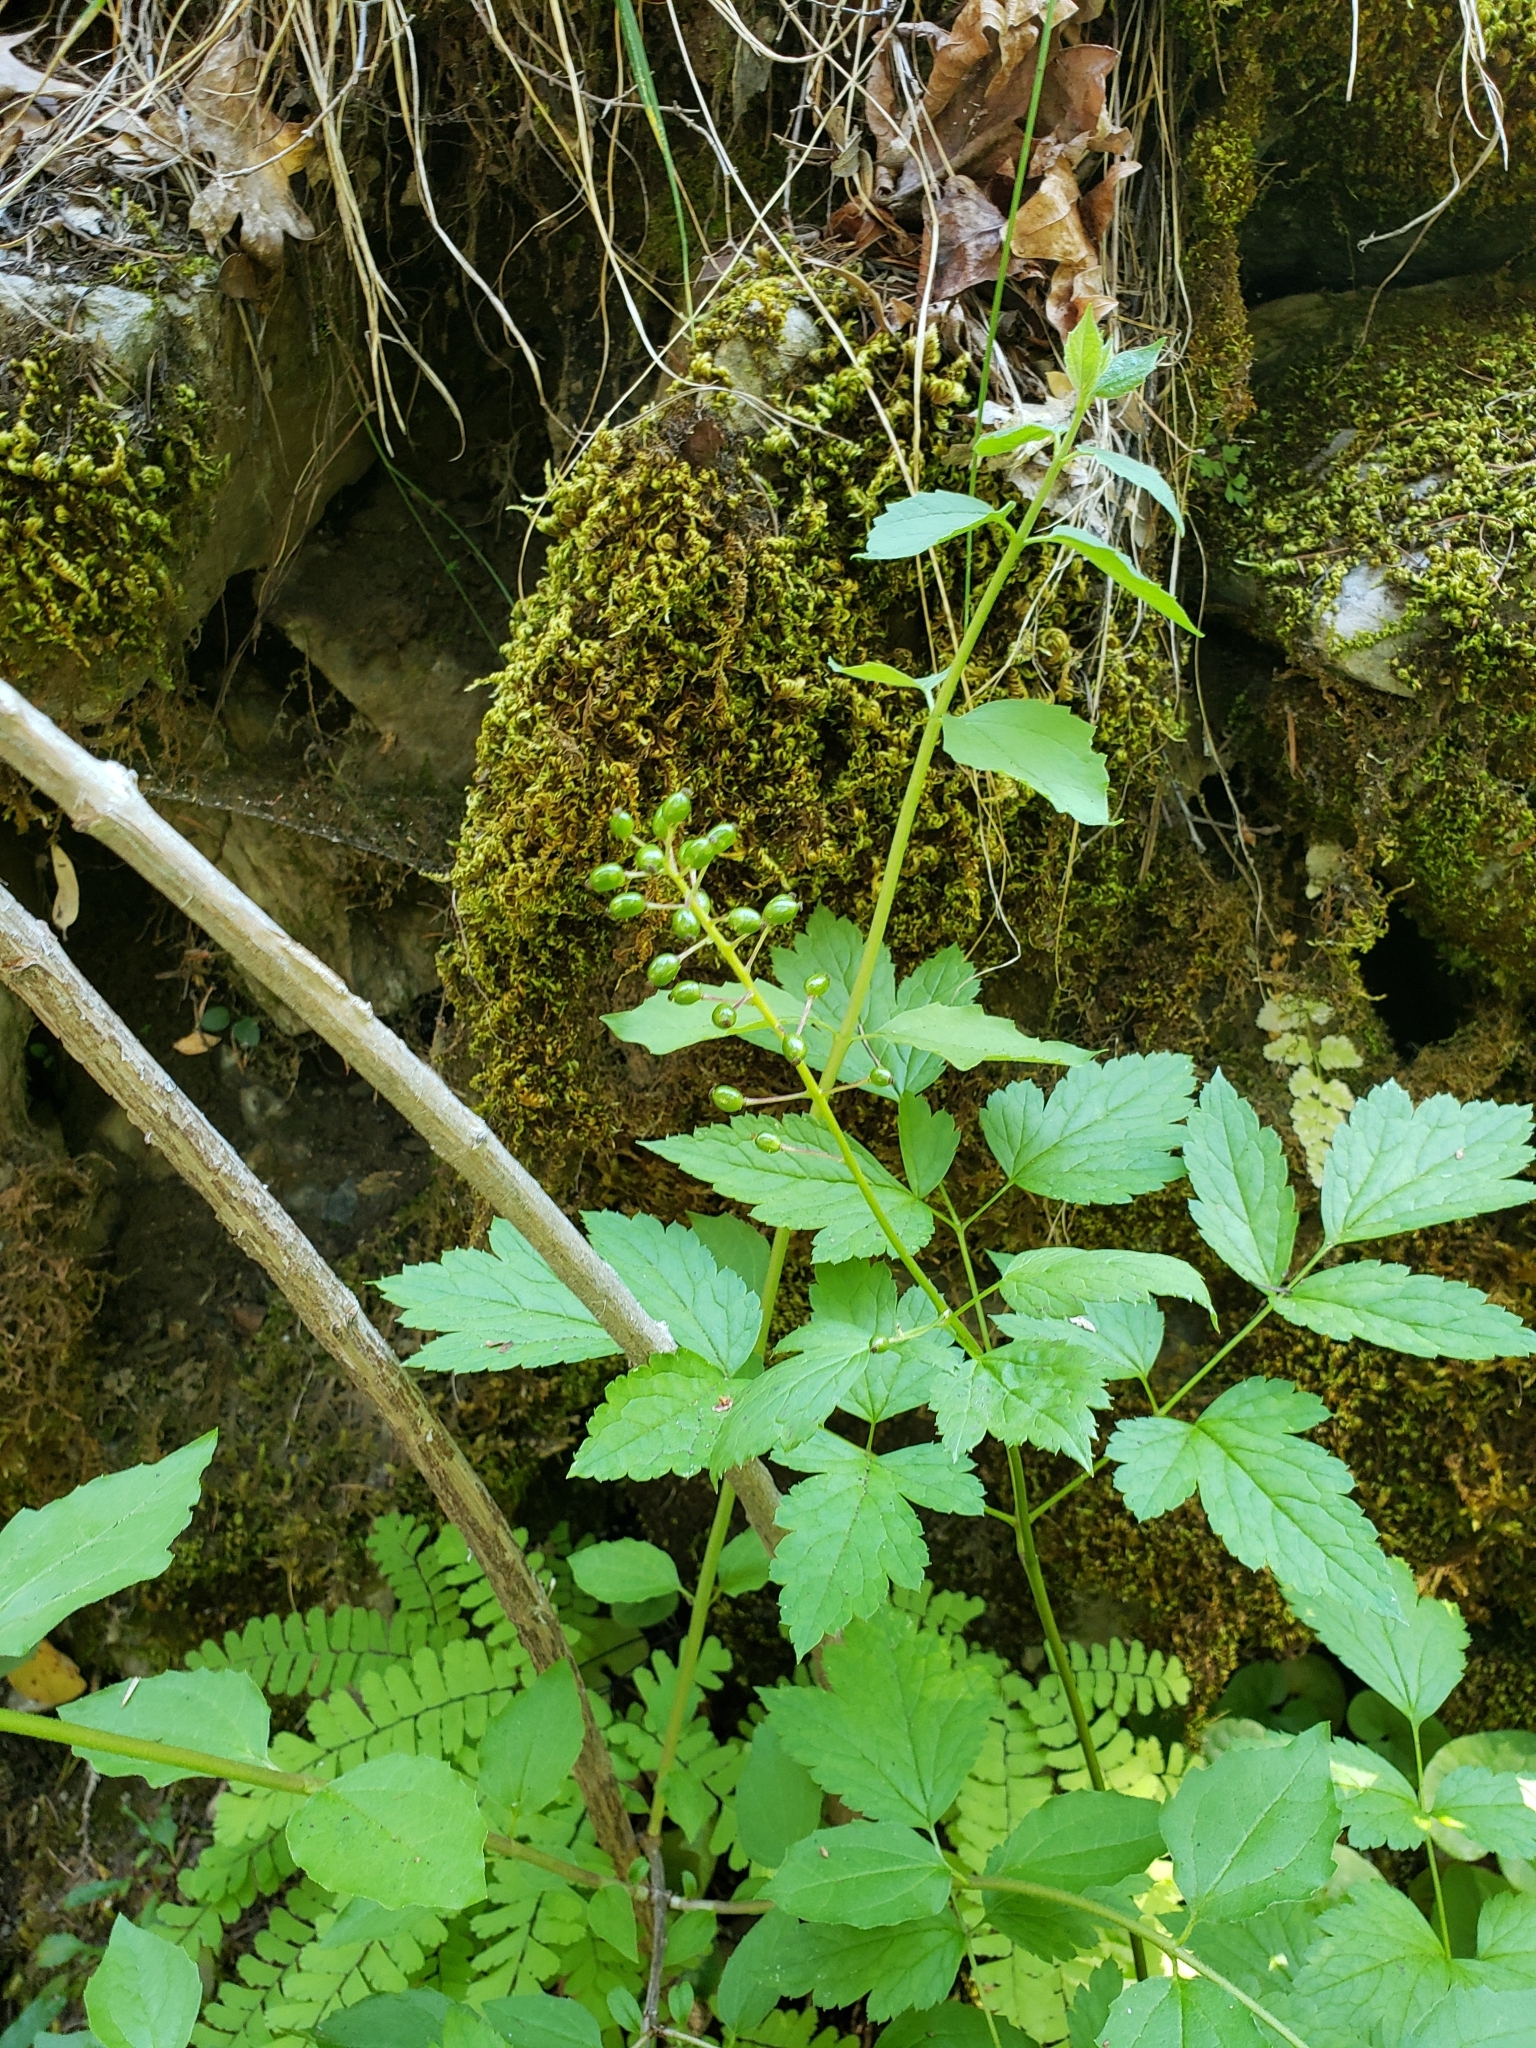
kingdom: Plantae
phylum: Tracheophyta
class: Magnoliopsida
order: Ranunculales
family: Ranunculaceae
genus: Actaea
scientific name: Actaea rubra
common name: Red baneberry
